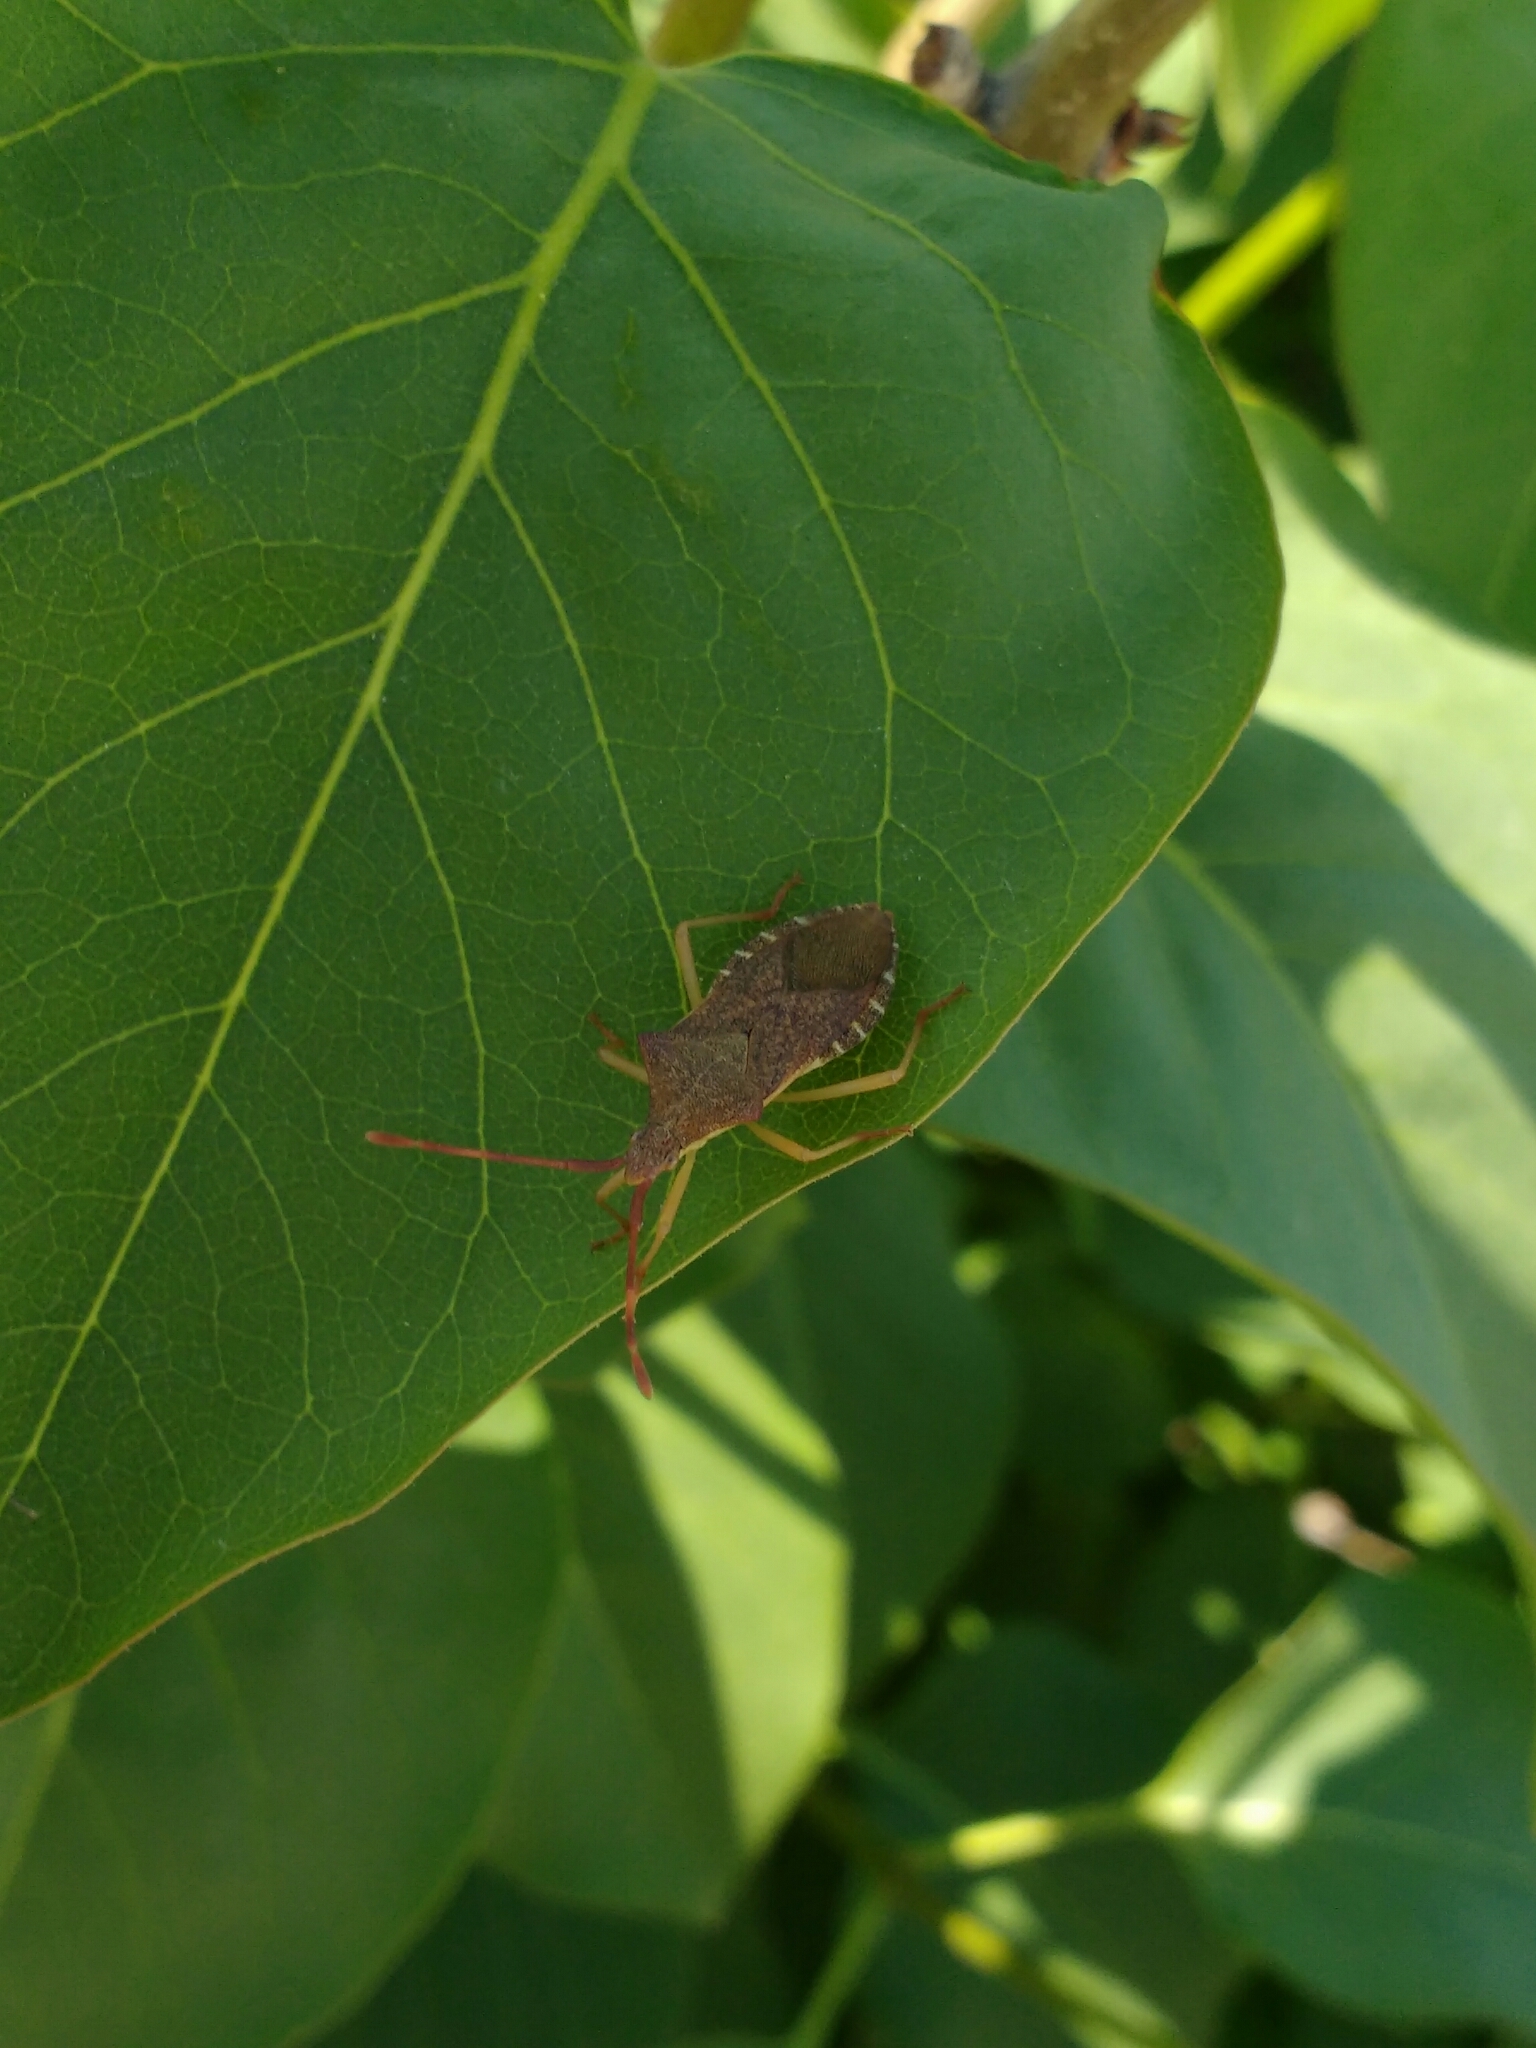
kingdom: Animalia
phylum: Arthropoda
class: Insecta
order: Hemiptera
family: Coreidae
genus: Gonocerus
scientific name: Gonocerus acuteangulatus
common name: Box bug
